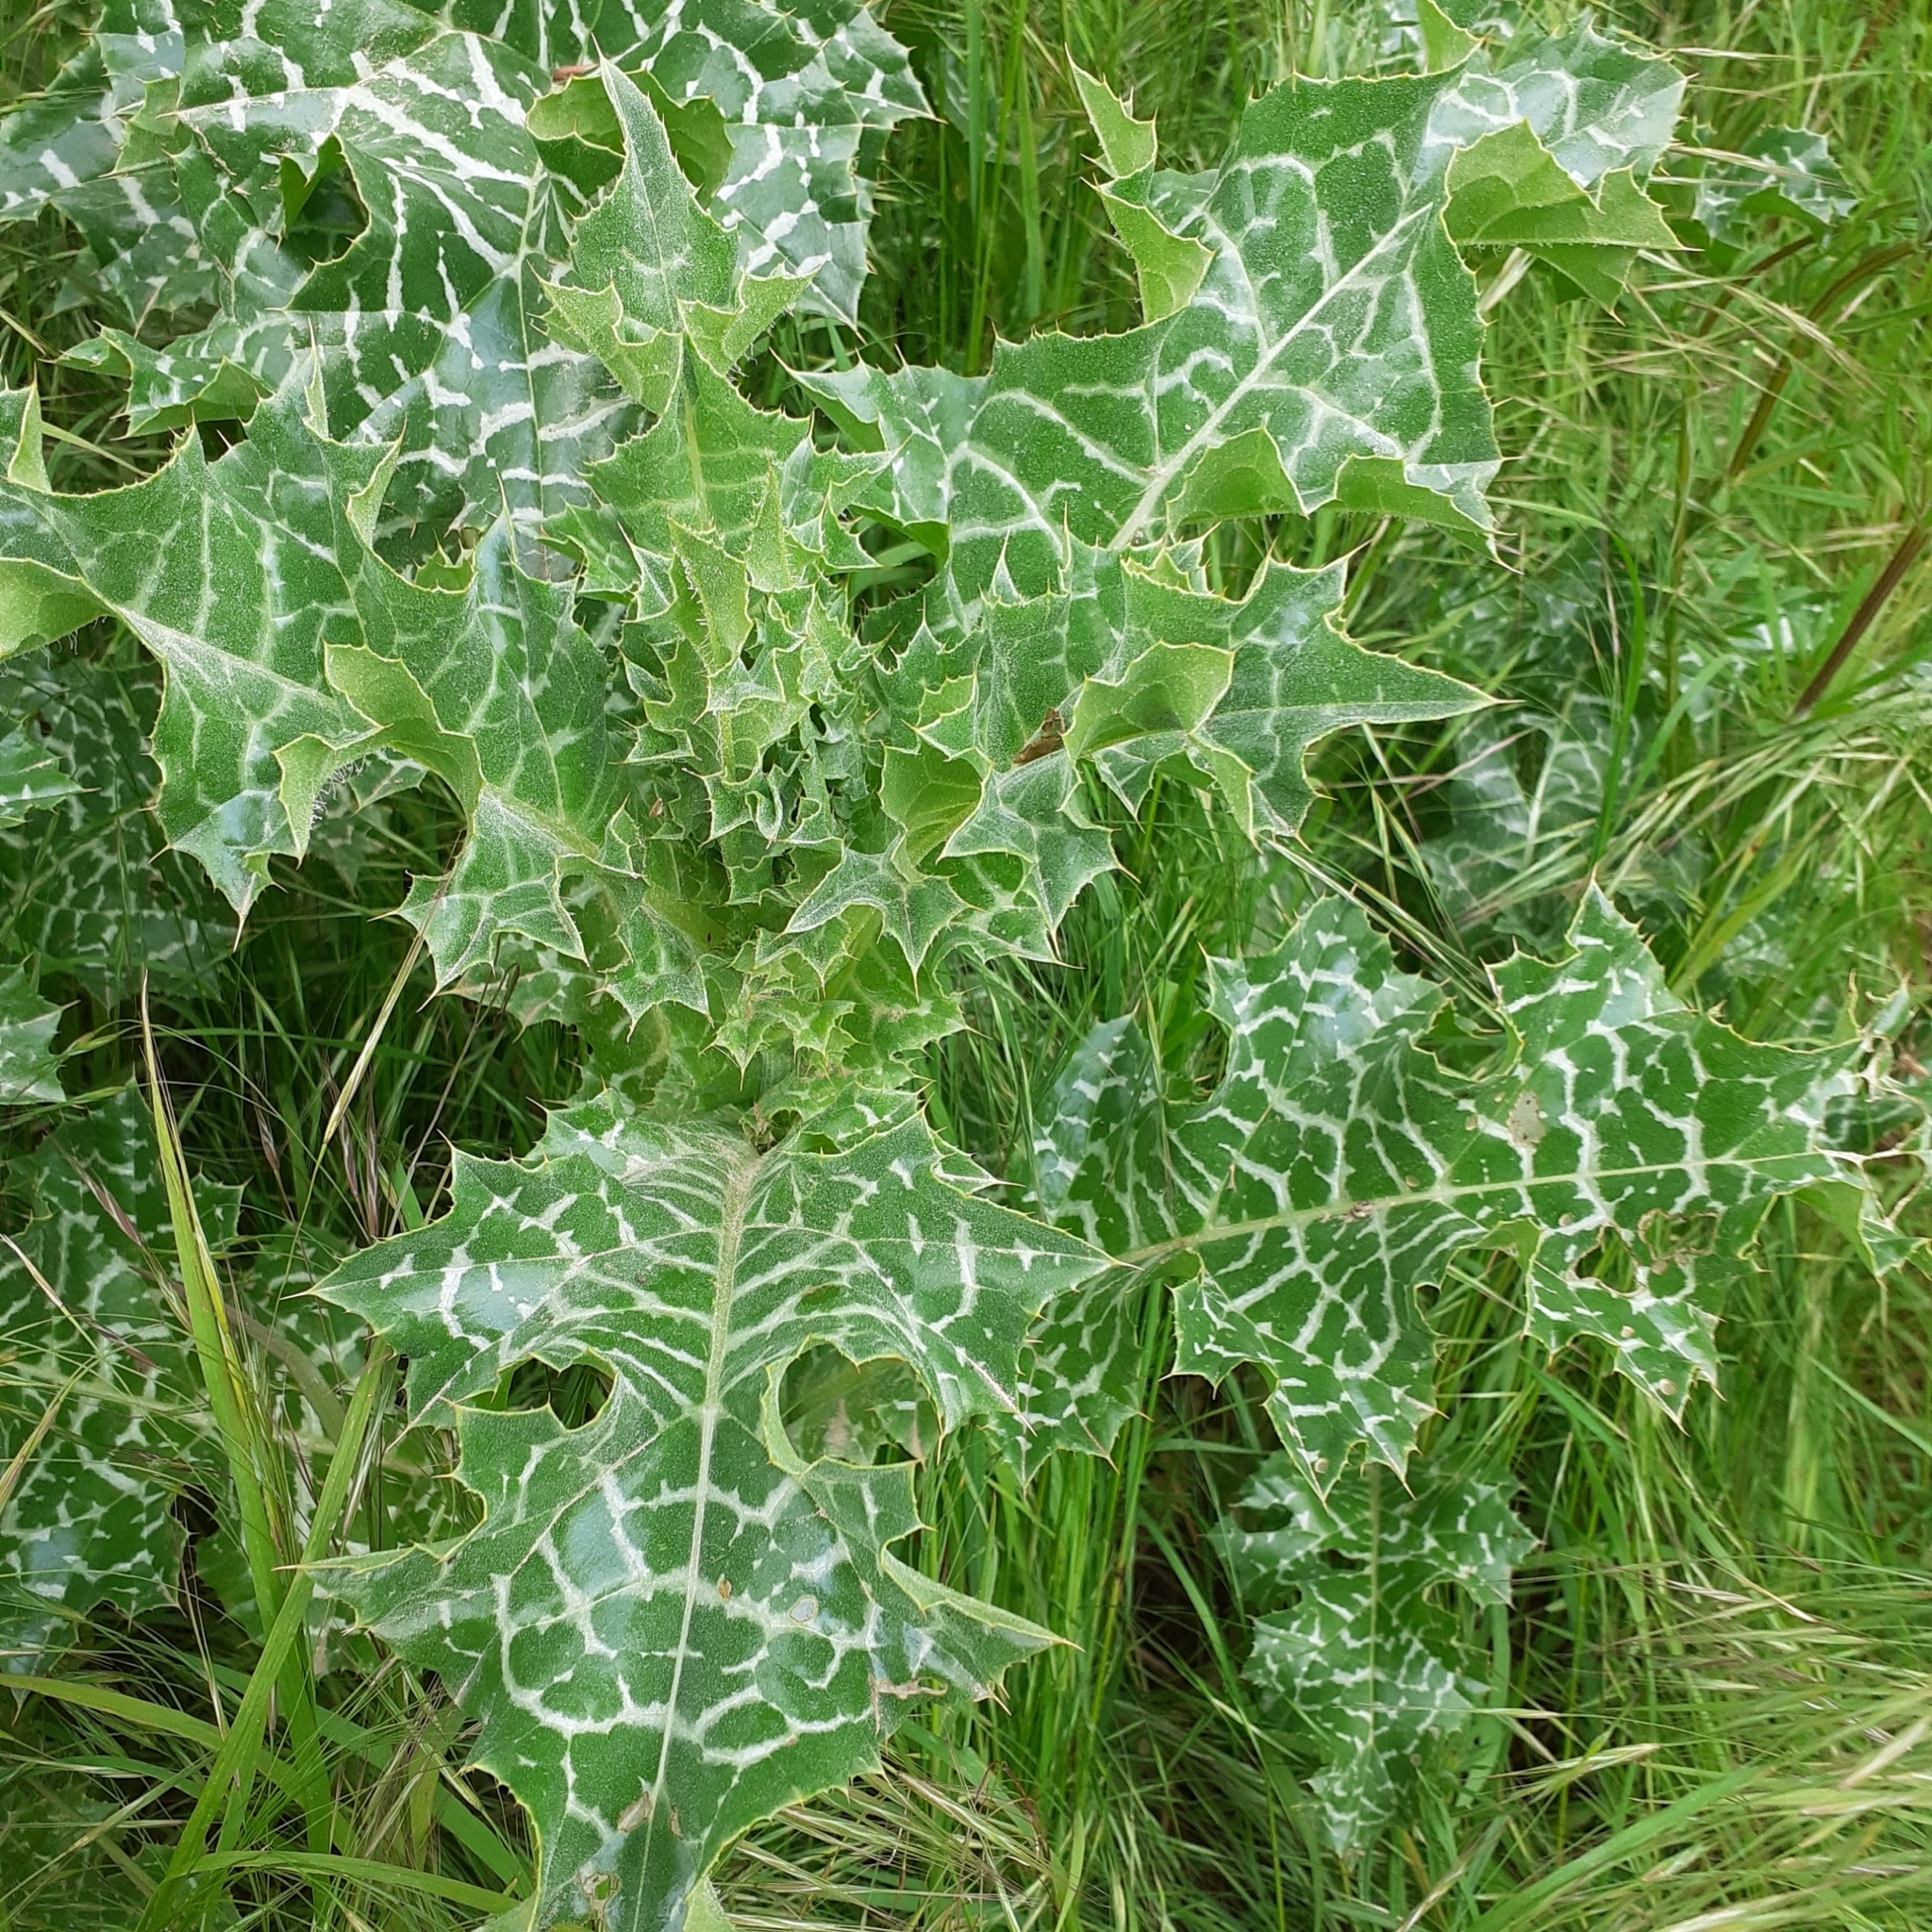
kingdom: Plantae
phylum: Tracheophyta
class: Magnoliopsida
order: Asterales
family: Asteraceae
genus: Silybum
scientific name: Silybum marianum
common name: Milk thistle
